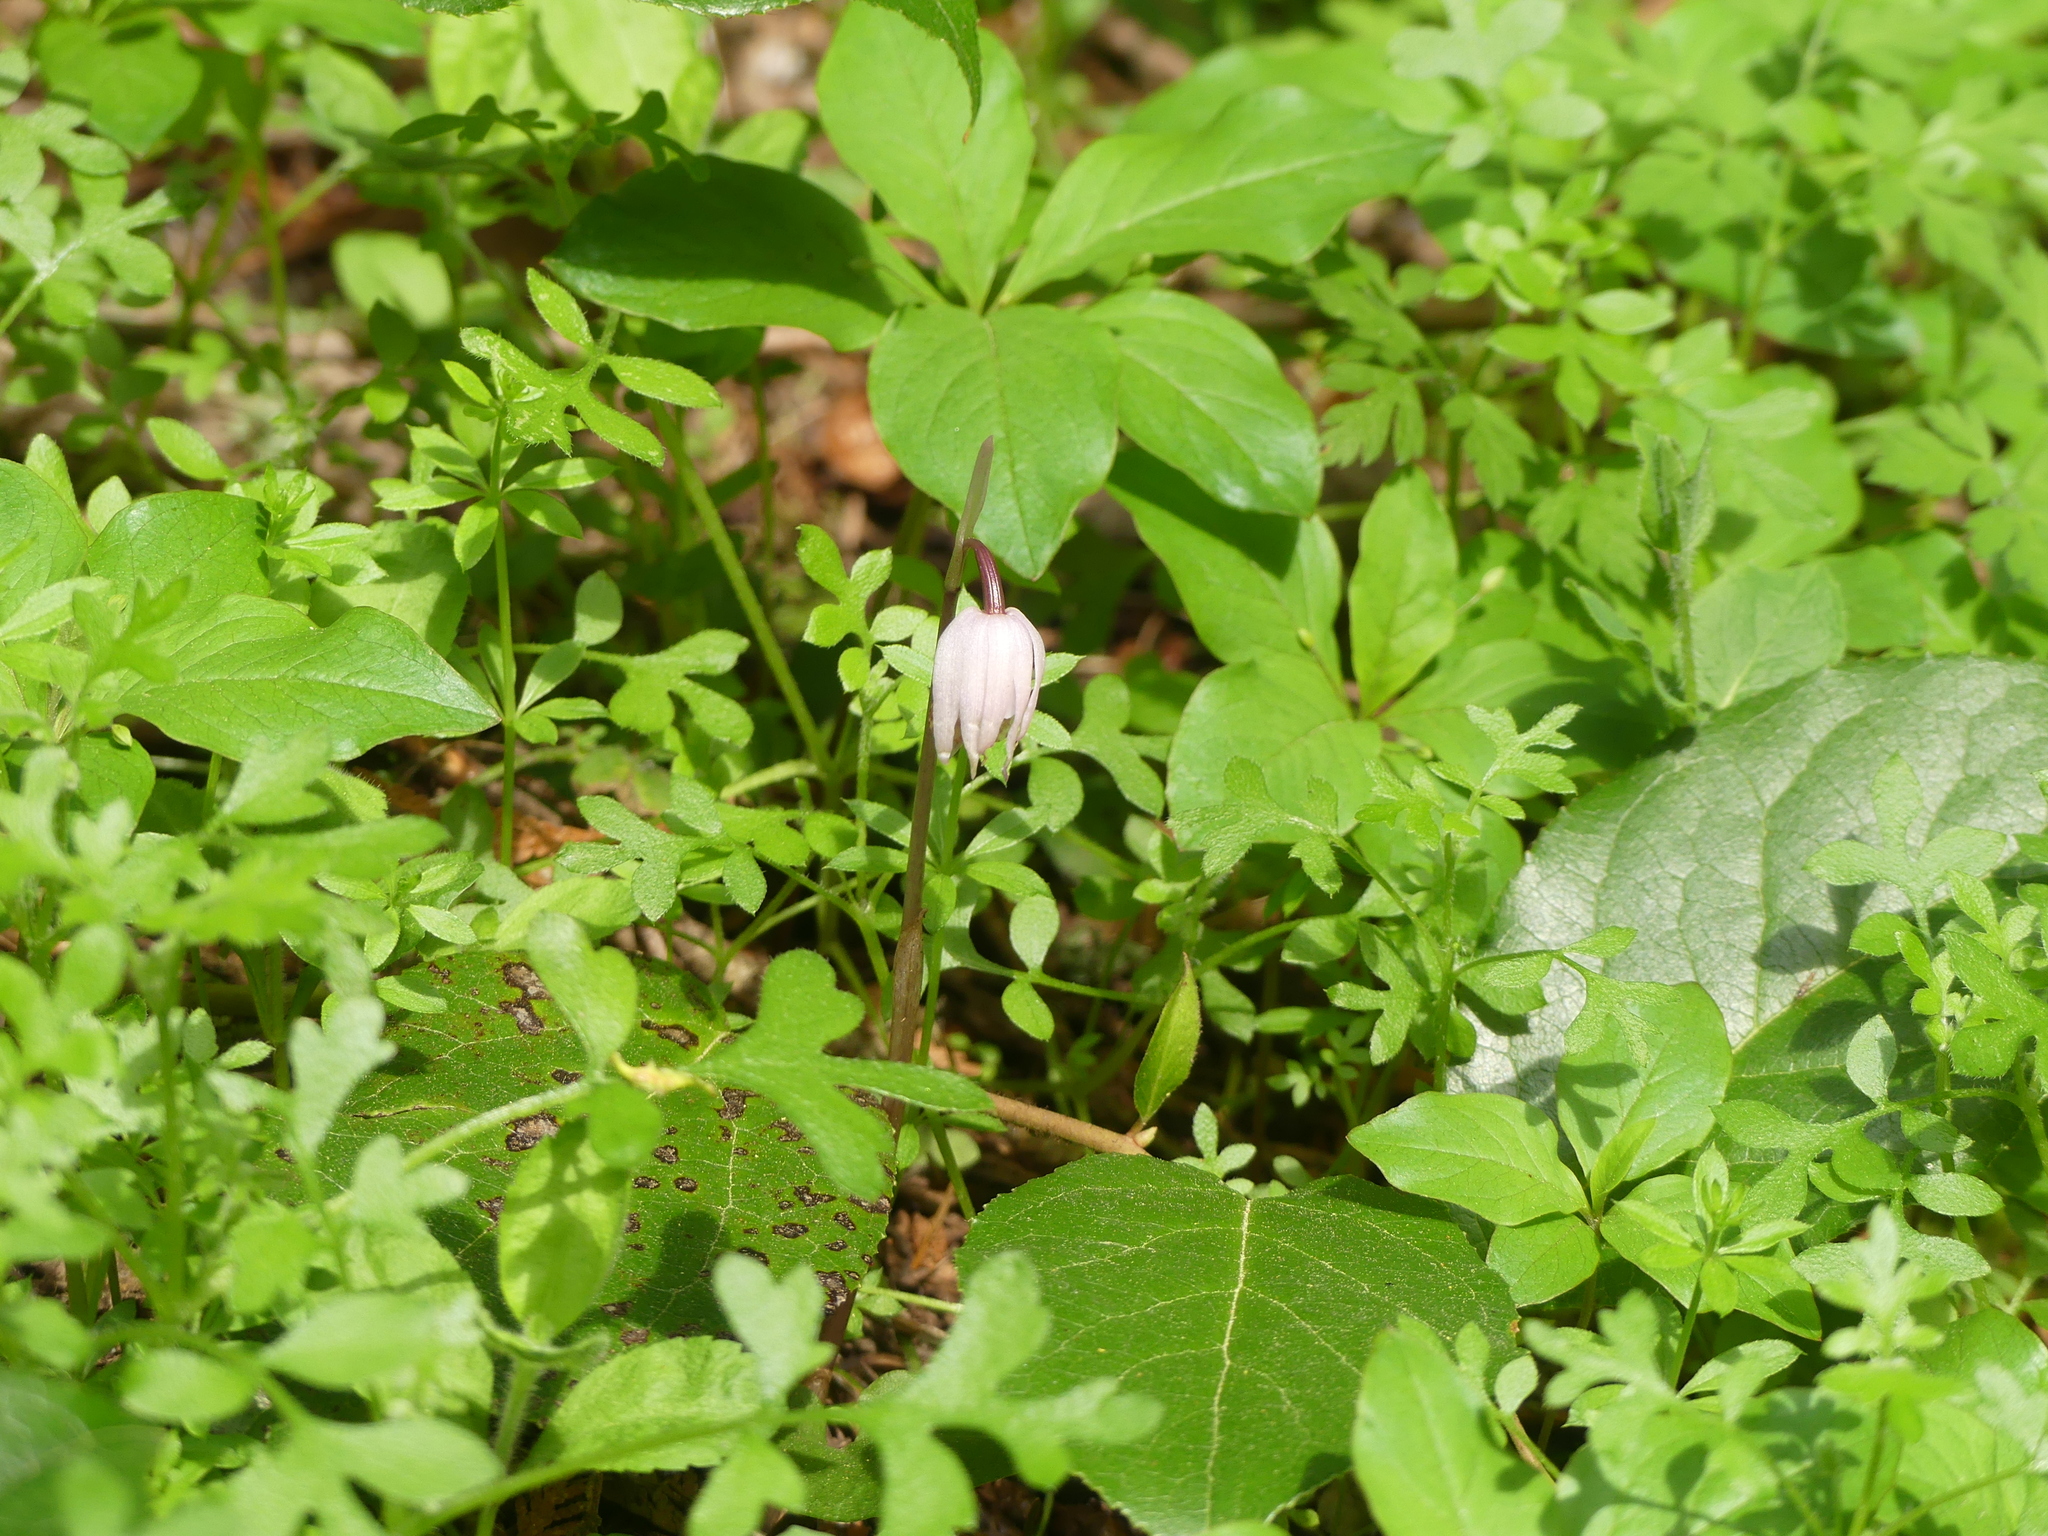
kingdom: Plantae
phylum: Tracheophyta
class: Liliopsida
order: Asparagales
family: Orchidaceae
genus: Calypso
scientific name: Calypso bulbosa
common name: Calypso
